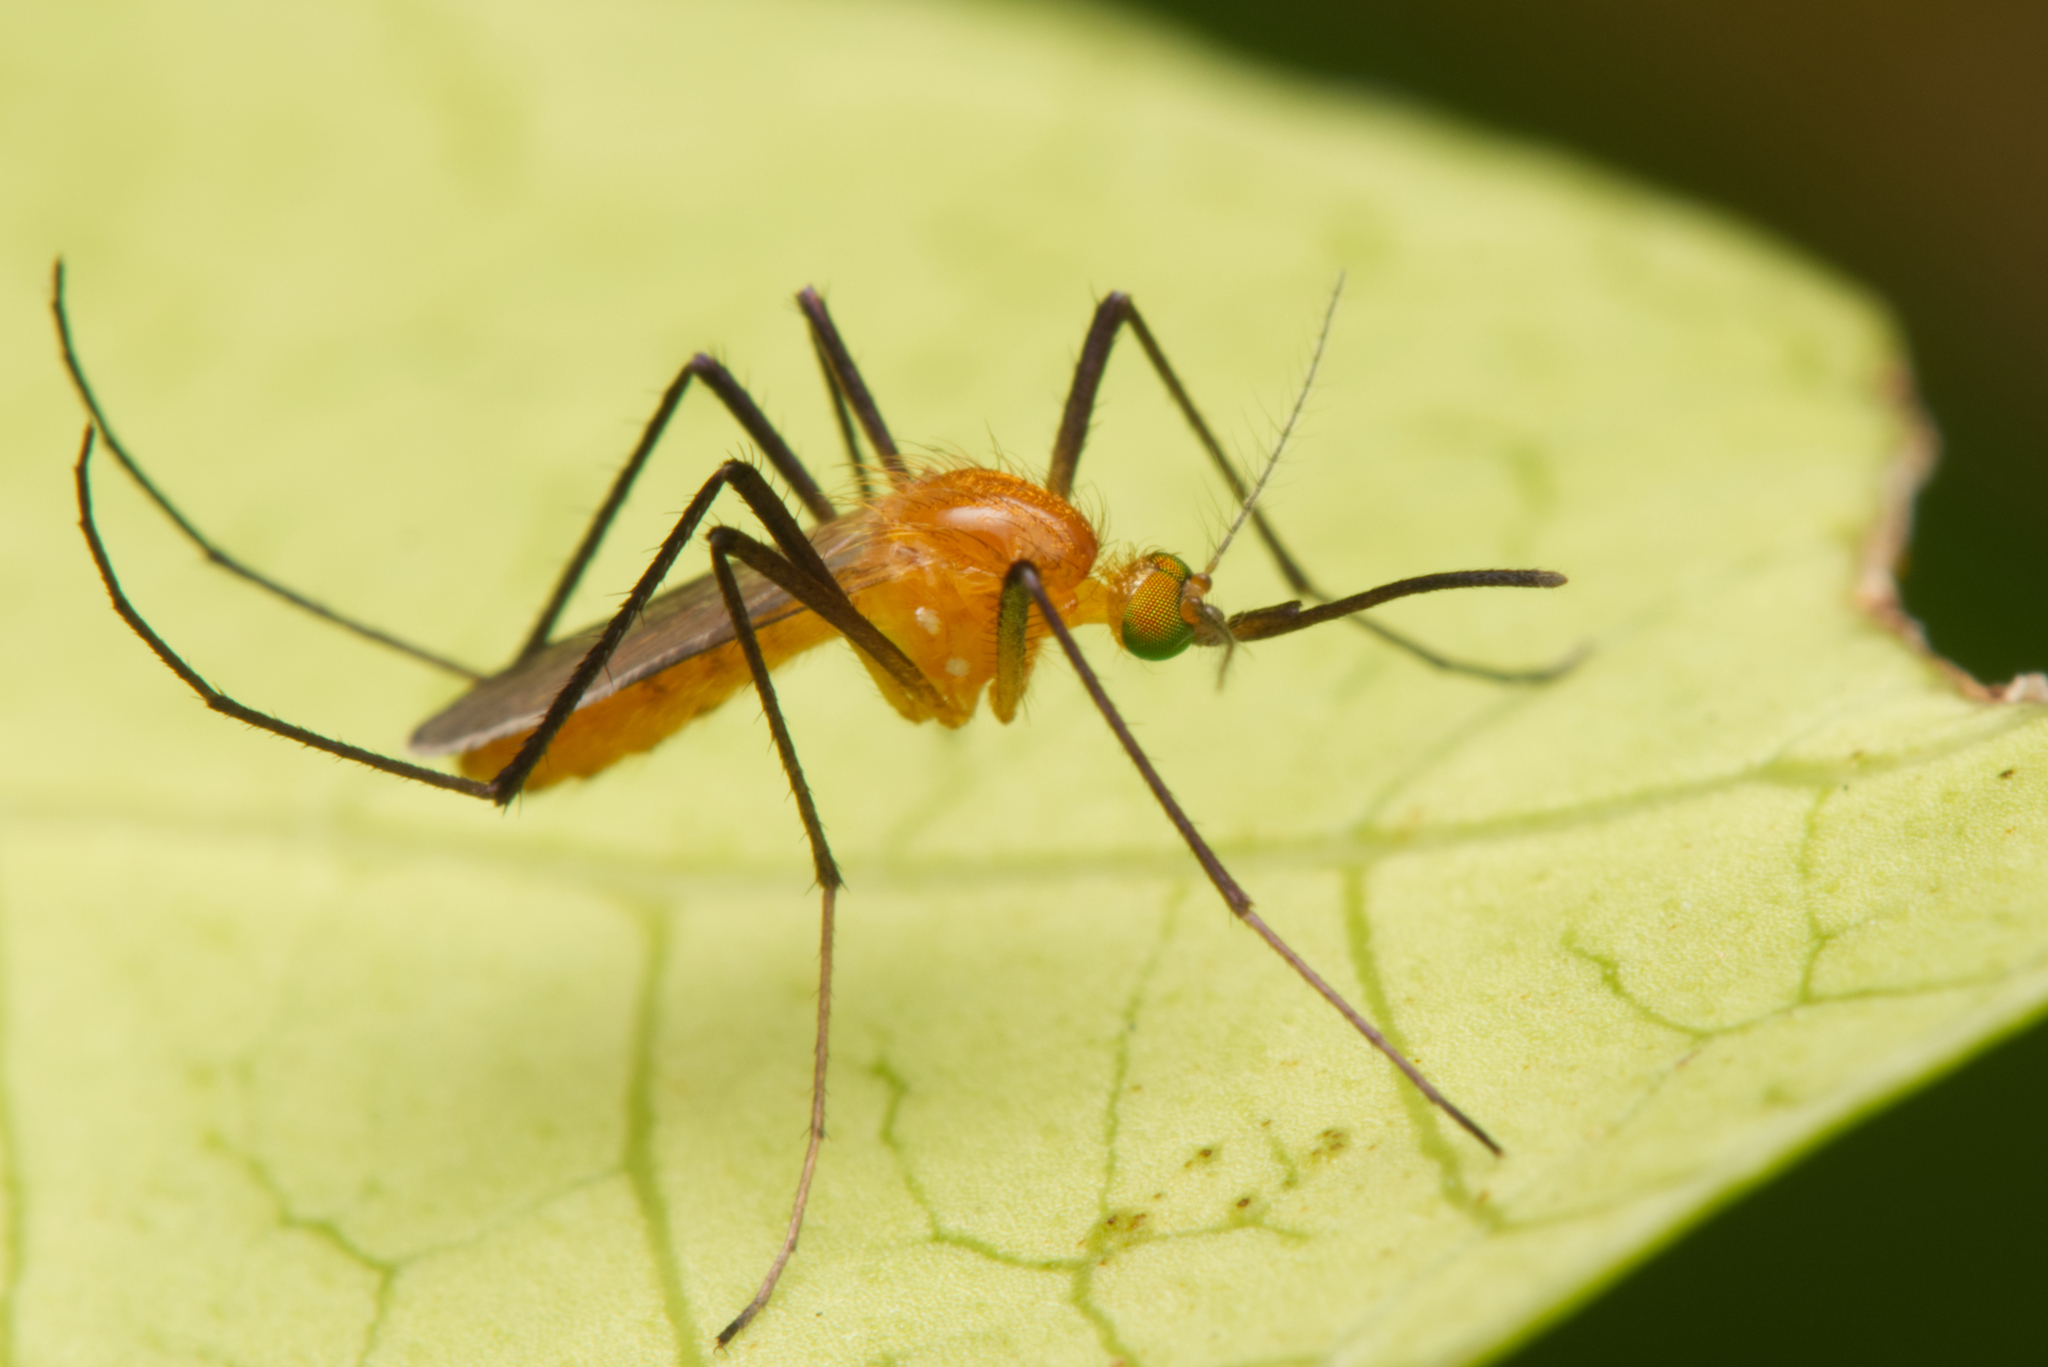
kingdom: Animalia
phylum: Arthropoda
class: Insecta
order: Diptera
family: Culicidae
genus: Coquillettidia
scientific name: Coquillettidia xanthogaster
